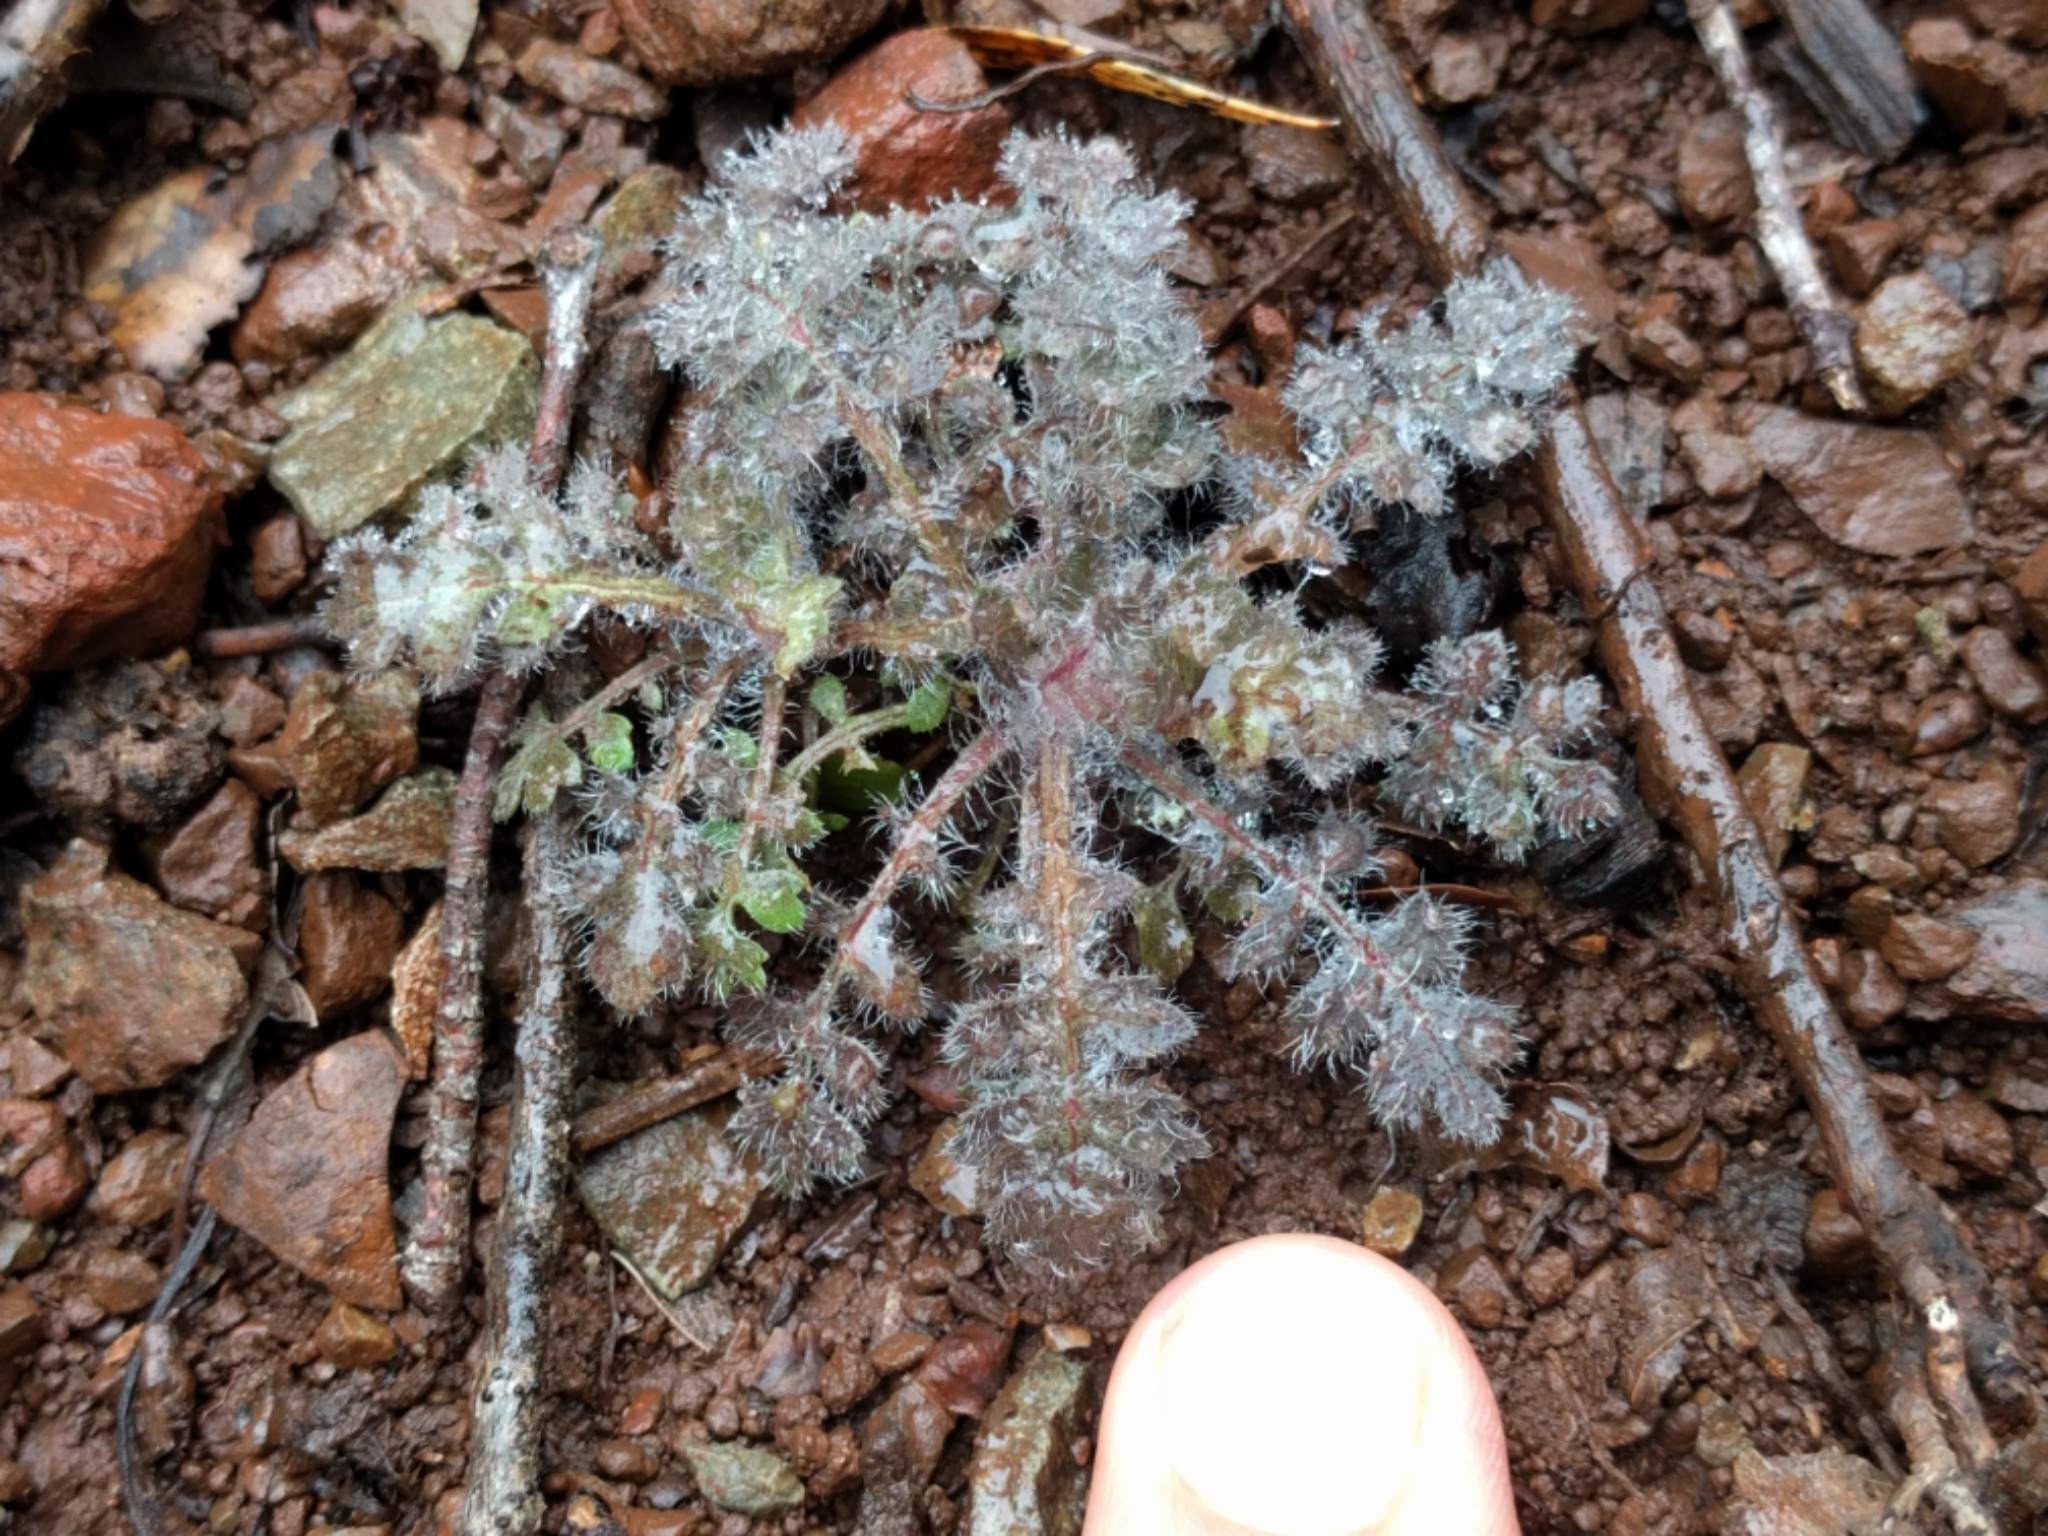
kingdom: Plantae
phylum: Tracheophyta
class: Magnoliopsida
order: Ericales
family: Polemoniaceae
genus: Collomia
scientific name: Collomia heterophylla
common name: Variable-leaved collomia
